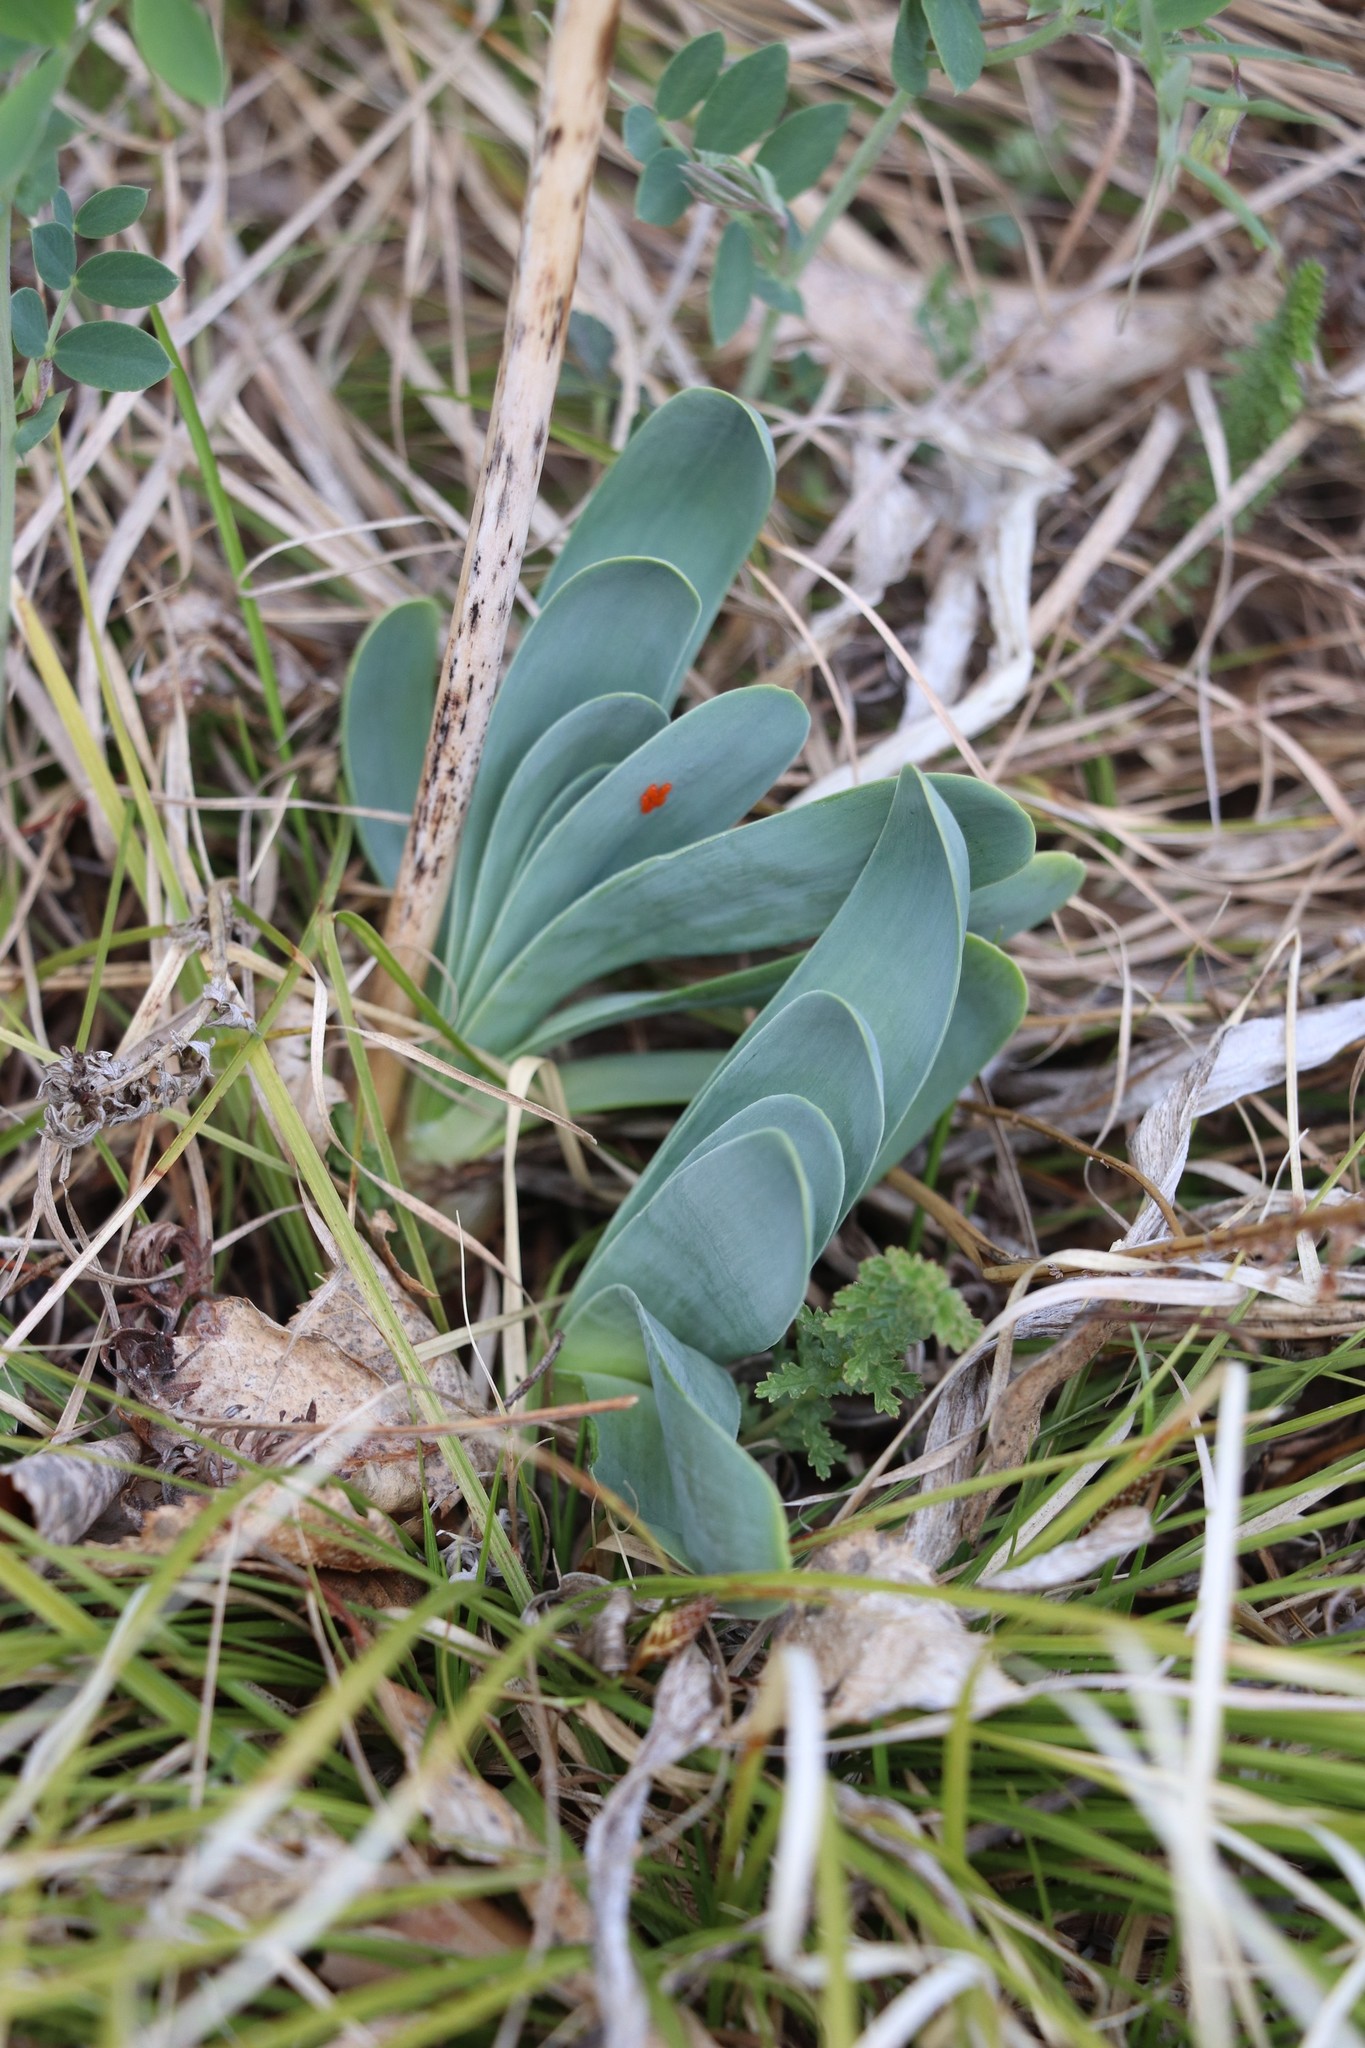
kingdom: Plantae
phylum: Tracheophyta
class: Liliopsida
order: Asparagales
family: Amaryllidaceae
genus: Allium
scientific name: Allium nutans
